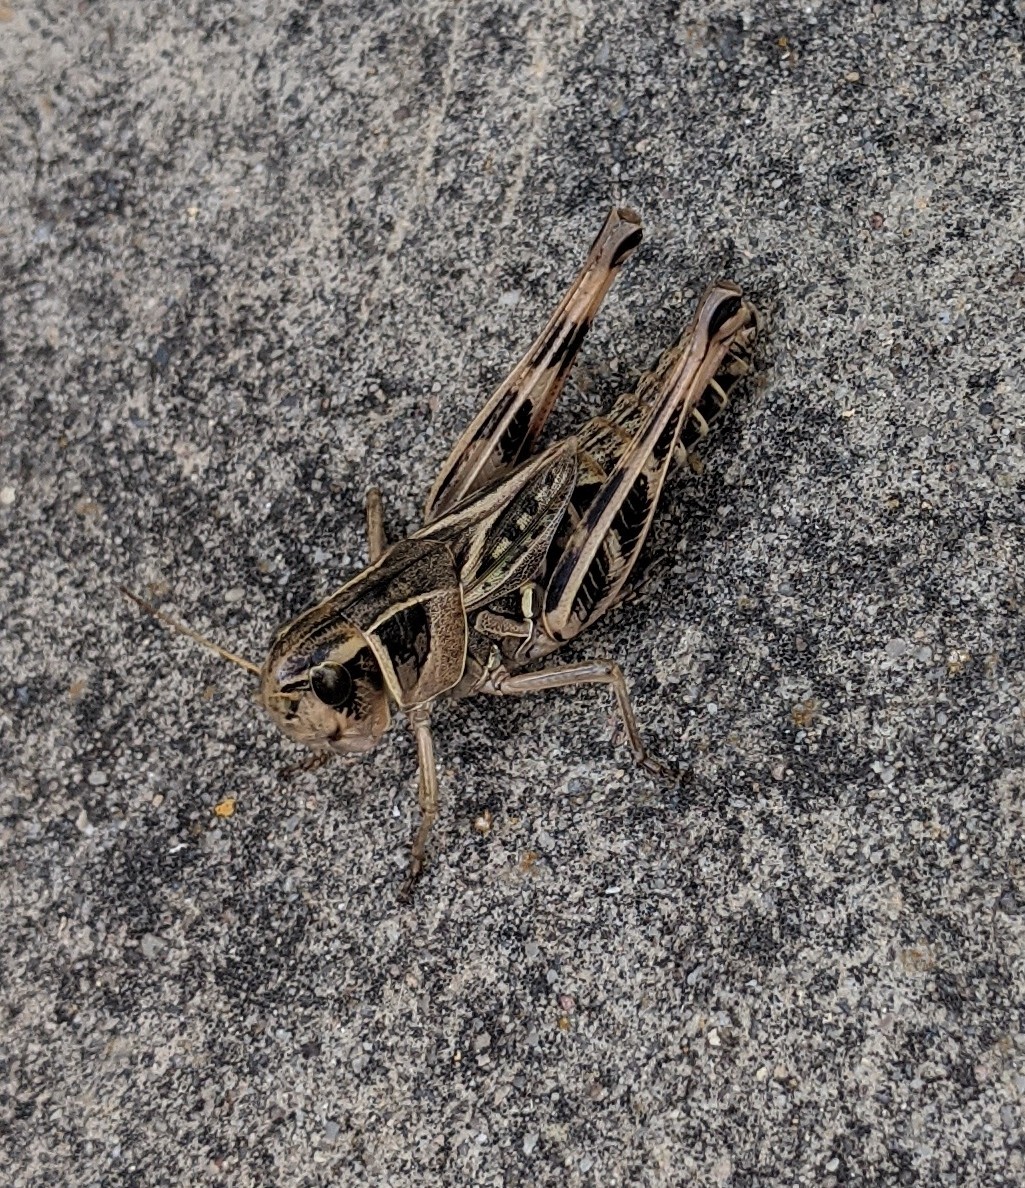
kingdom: Animalia
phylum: Arthropoda
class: Insecta
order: Orthoptera
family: Acrididae
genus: Boopedon
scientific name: Boopedon gracile
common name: Graceful range grasshopper
